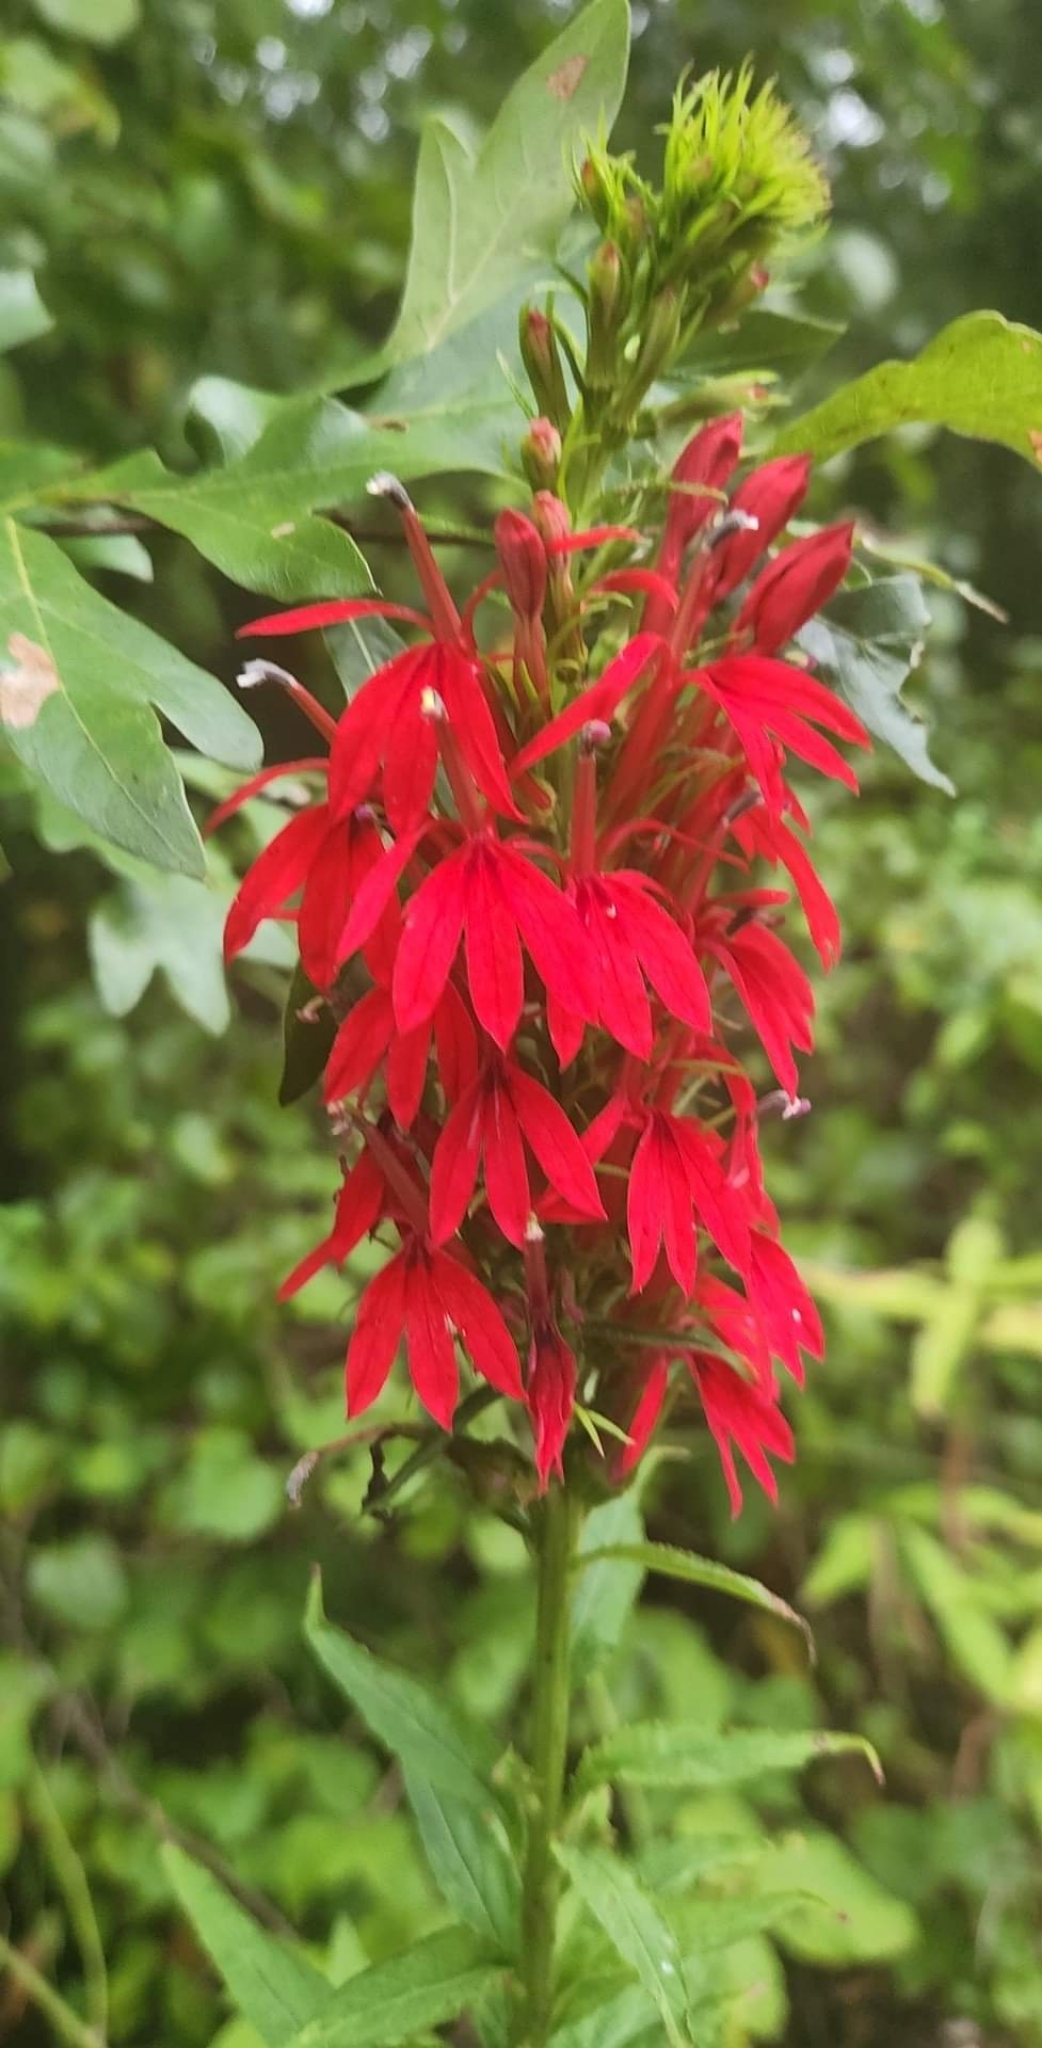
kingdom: Plantae
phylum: Tracheophyta
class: Magnoliopsida
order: Asterales
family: Campanulaceae
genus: Lobelia
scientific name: Lobelia cardinalis
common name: Cardinal flower
